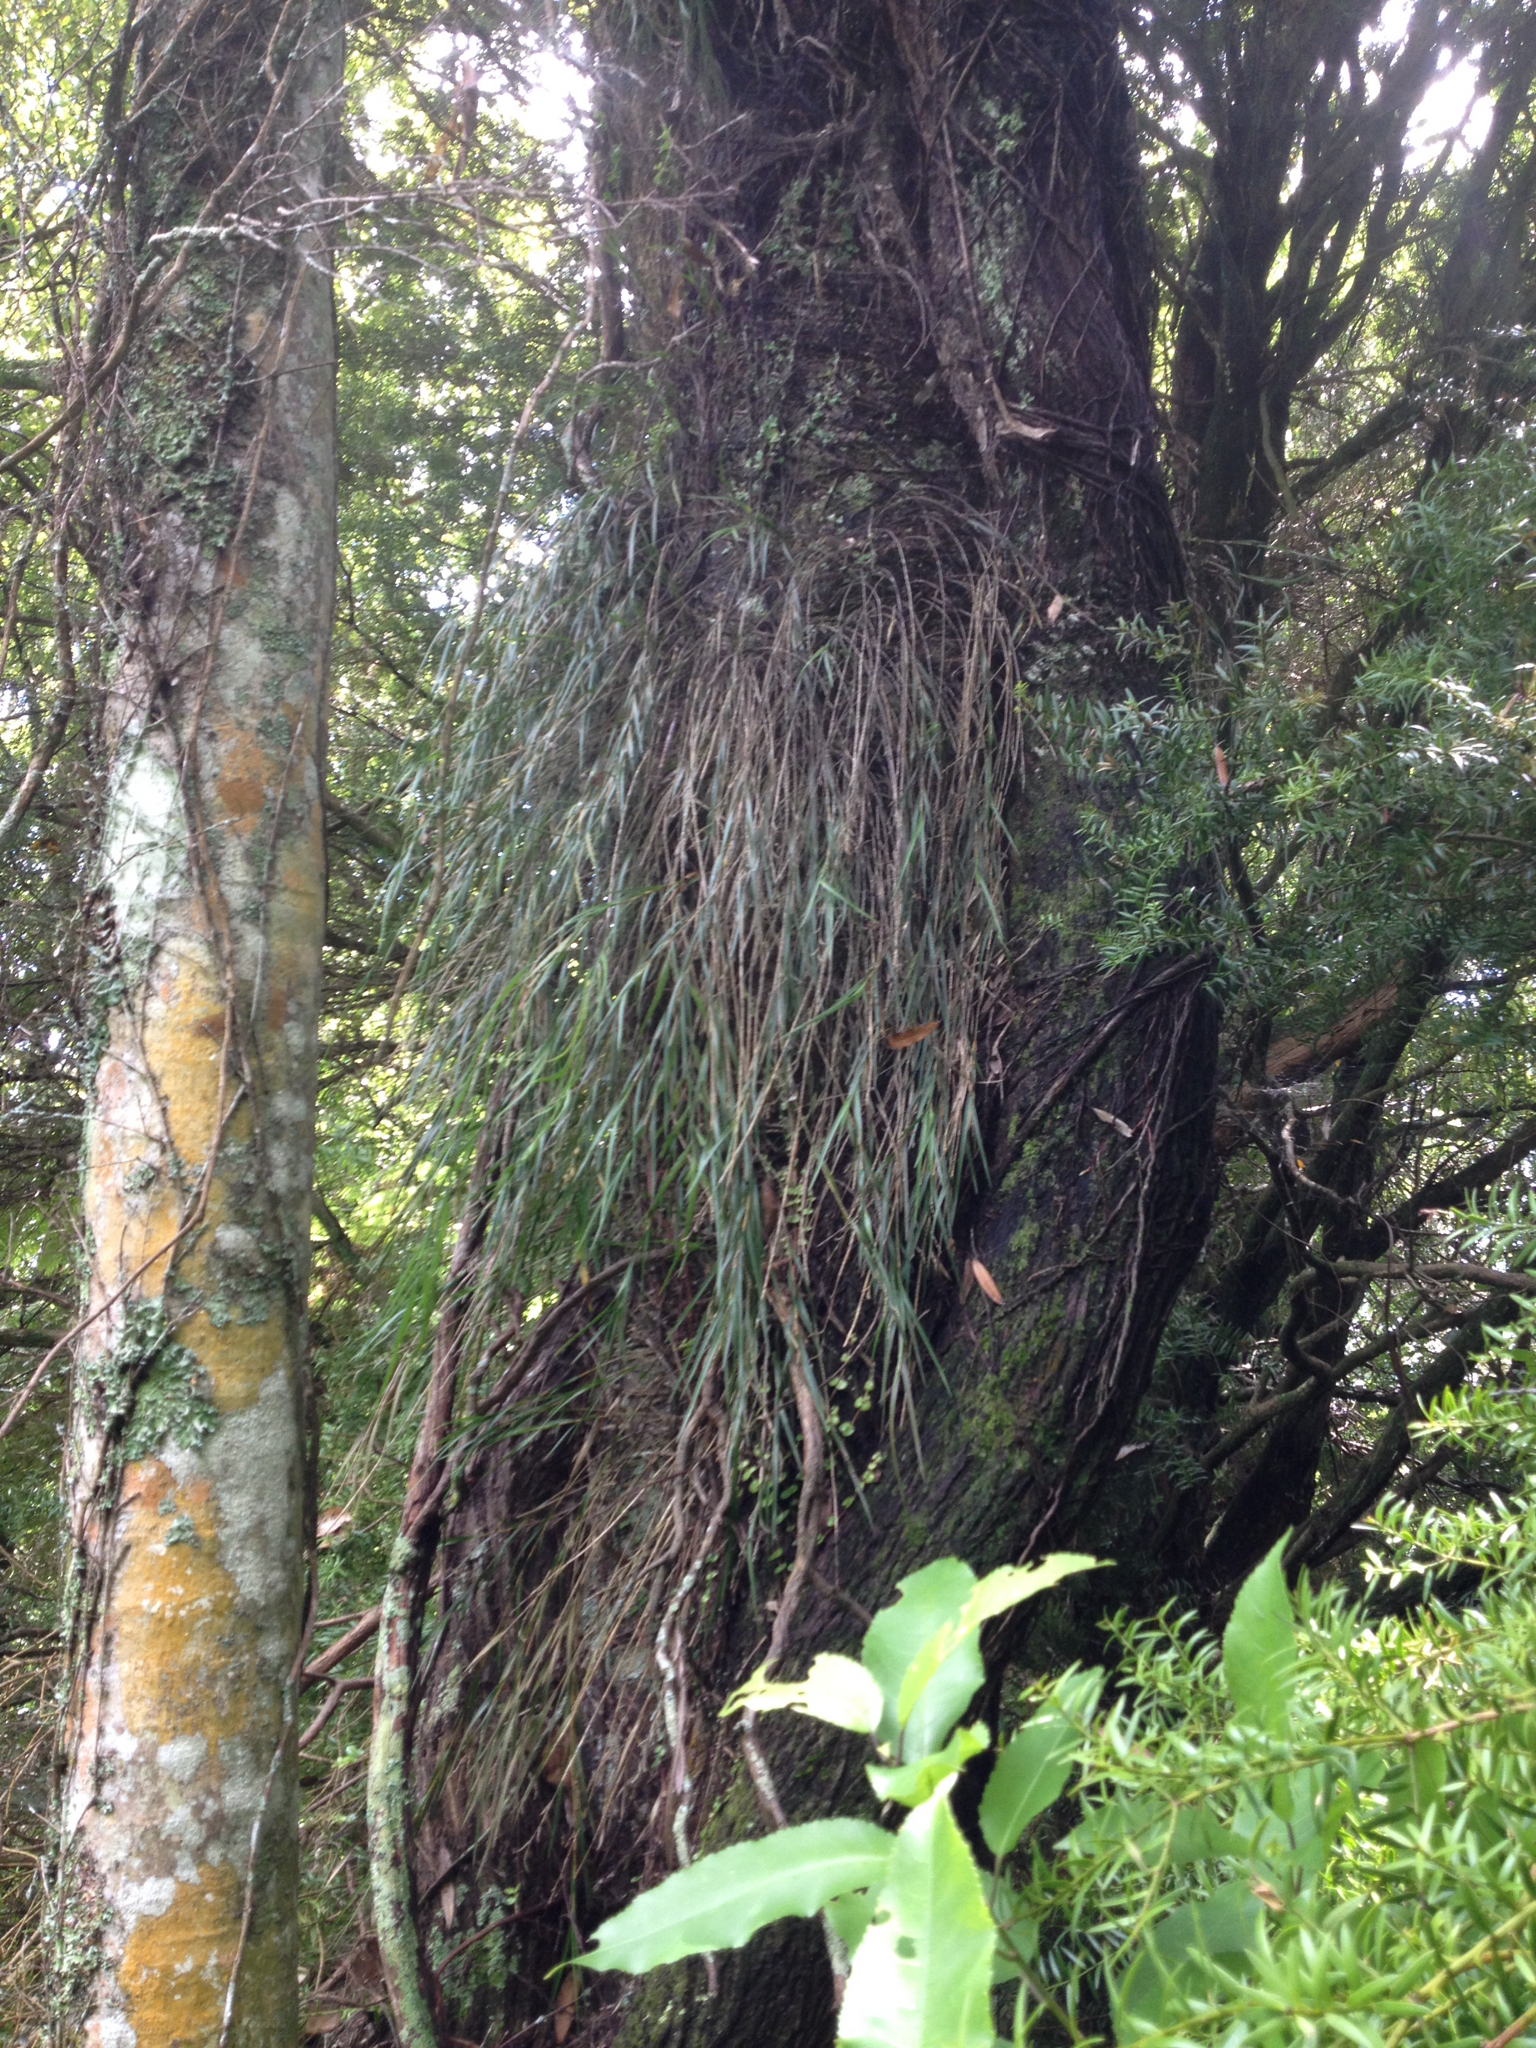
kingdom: Plantae
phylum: Tracheophyta
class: Liliopsida
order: Asparagales
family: Orchidaceae
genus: Earina
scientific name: Earina mucronata
